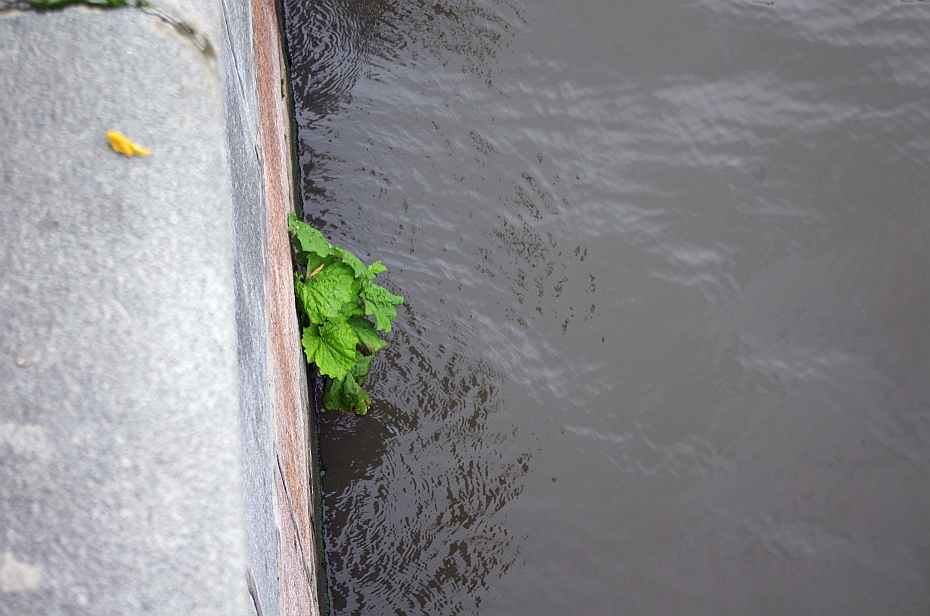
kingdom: Plantae
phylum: Tracheophyta
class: Magnoliopsida
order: Asterales
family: Asteraceae
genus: Tussilago
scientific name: Tussilago farfara
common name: Coltsfoot
